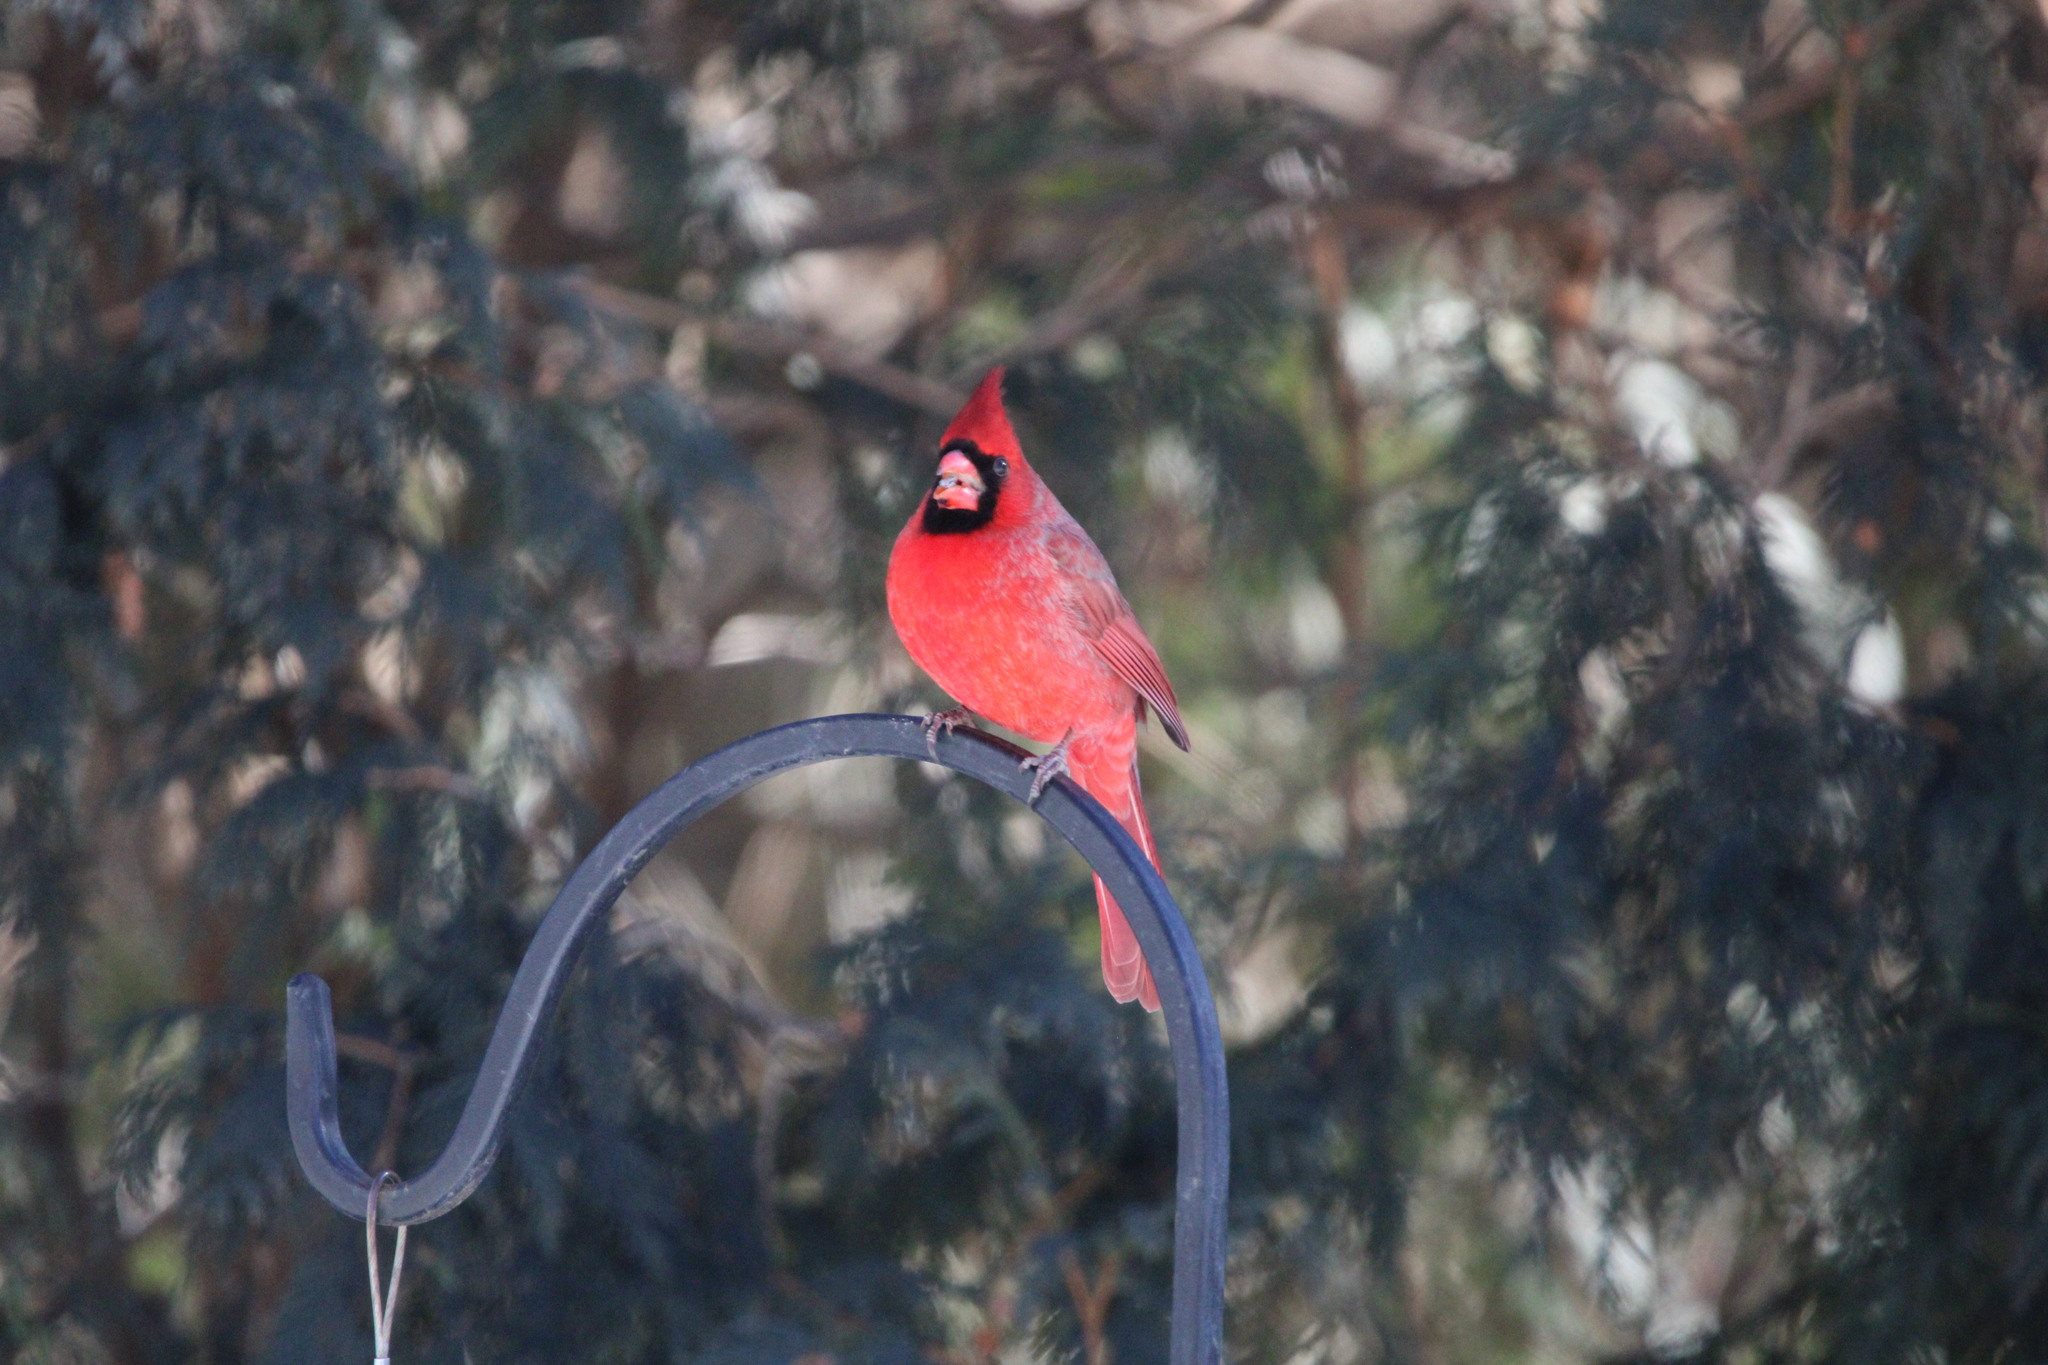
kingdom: Animalia
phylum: Chordata
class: Aves
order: Passeriformes
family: Cardinalidae
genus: Cardinalis
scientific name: Cardinalis cardinalis
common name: Northern cardinal
